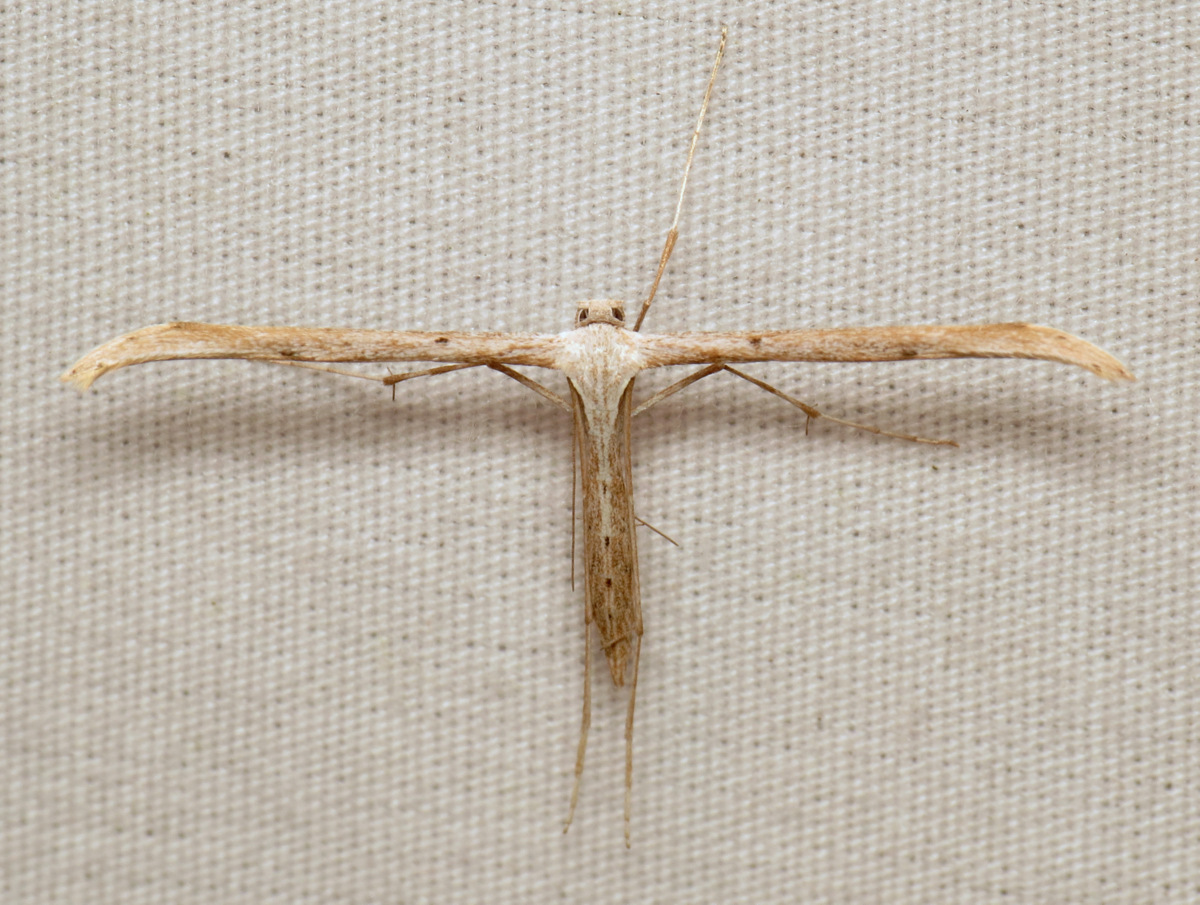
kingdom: Animalia
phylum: Arthropoda
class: Insecta
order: Lepidoptera
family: Pterophoridae
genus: Emmelina
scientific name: Emmelina monodactyla
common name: Common plume
